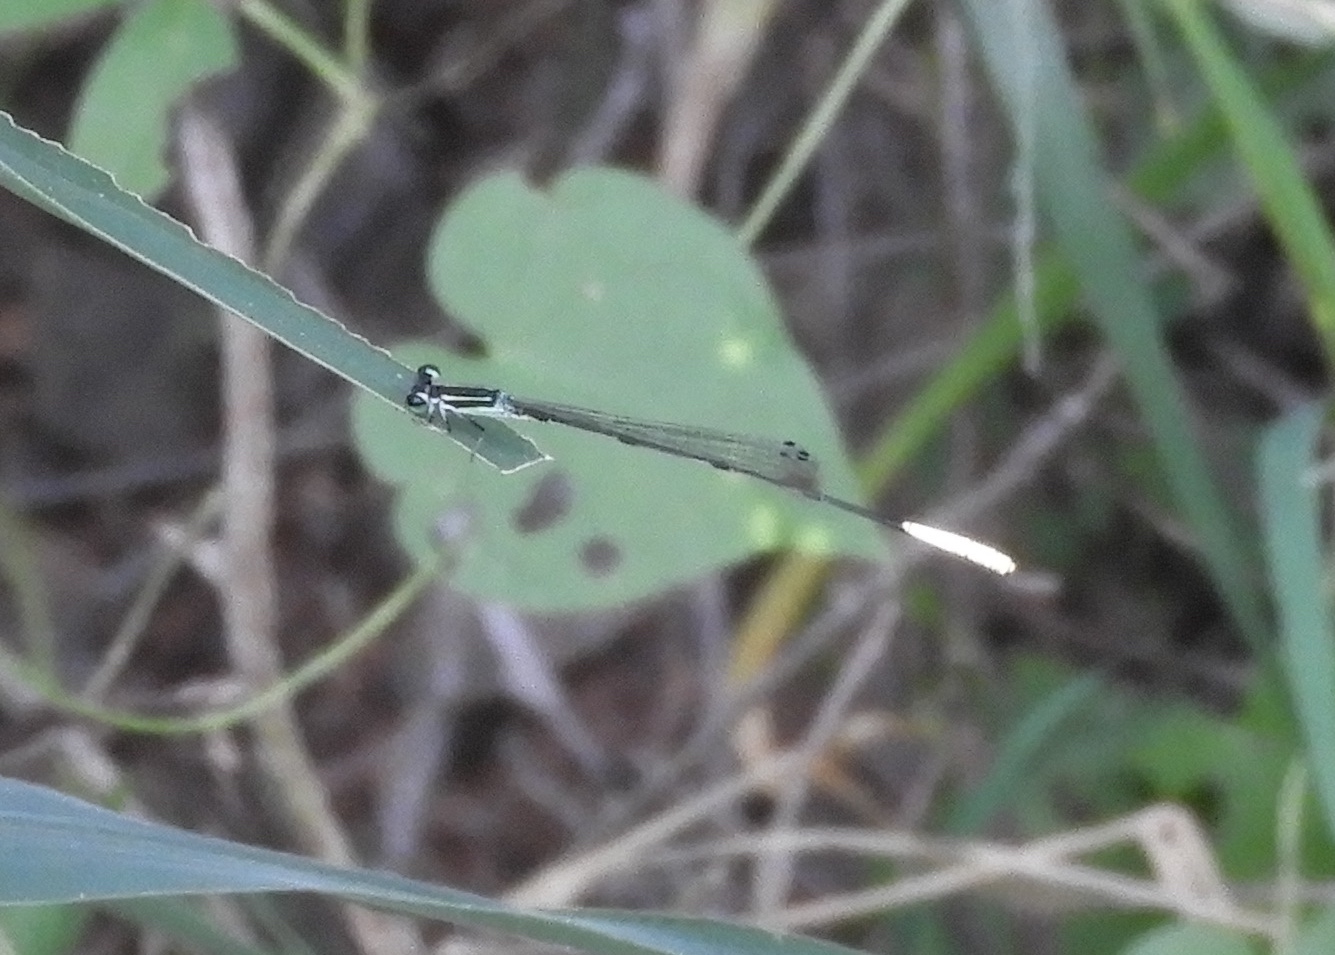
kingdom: Animalia
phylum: Arthropoda
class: Insecta
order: Odonata
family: Coenagrionidae
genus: Leptobasis
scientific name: Leptobasis melinogaster
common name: Cream-tipped swampdamsel
